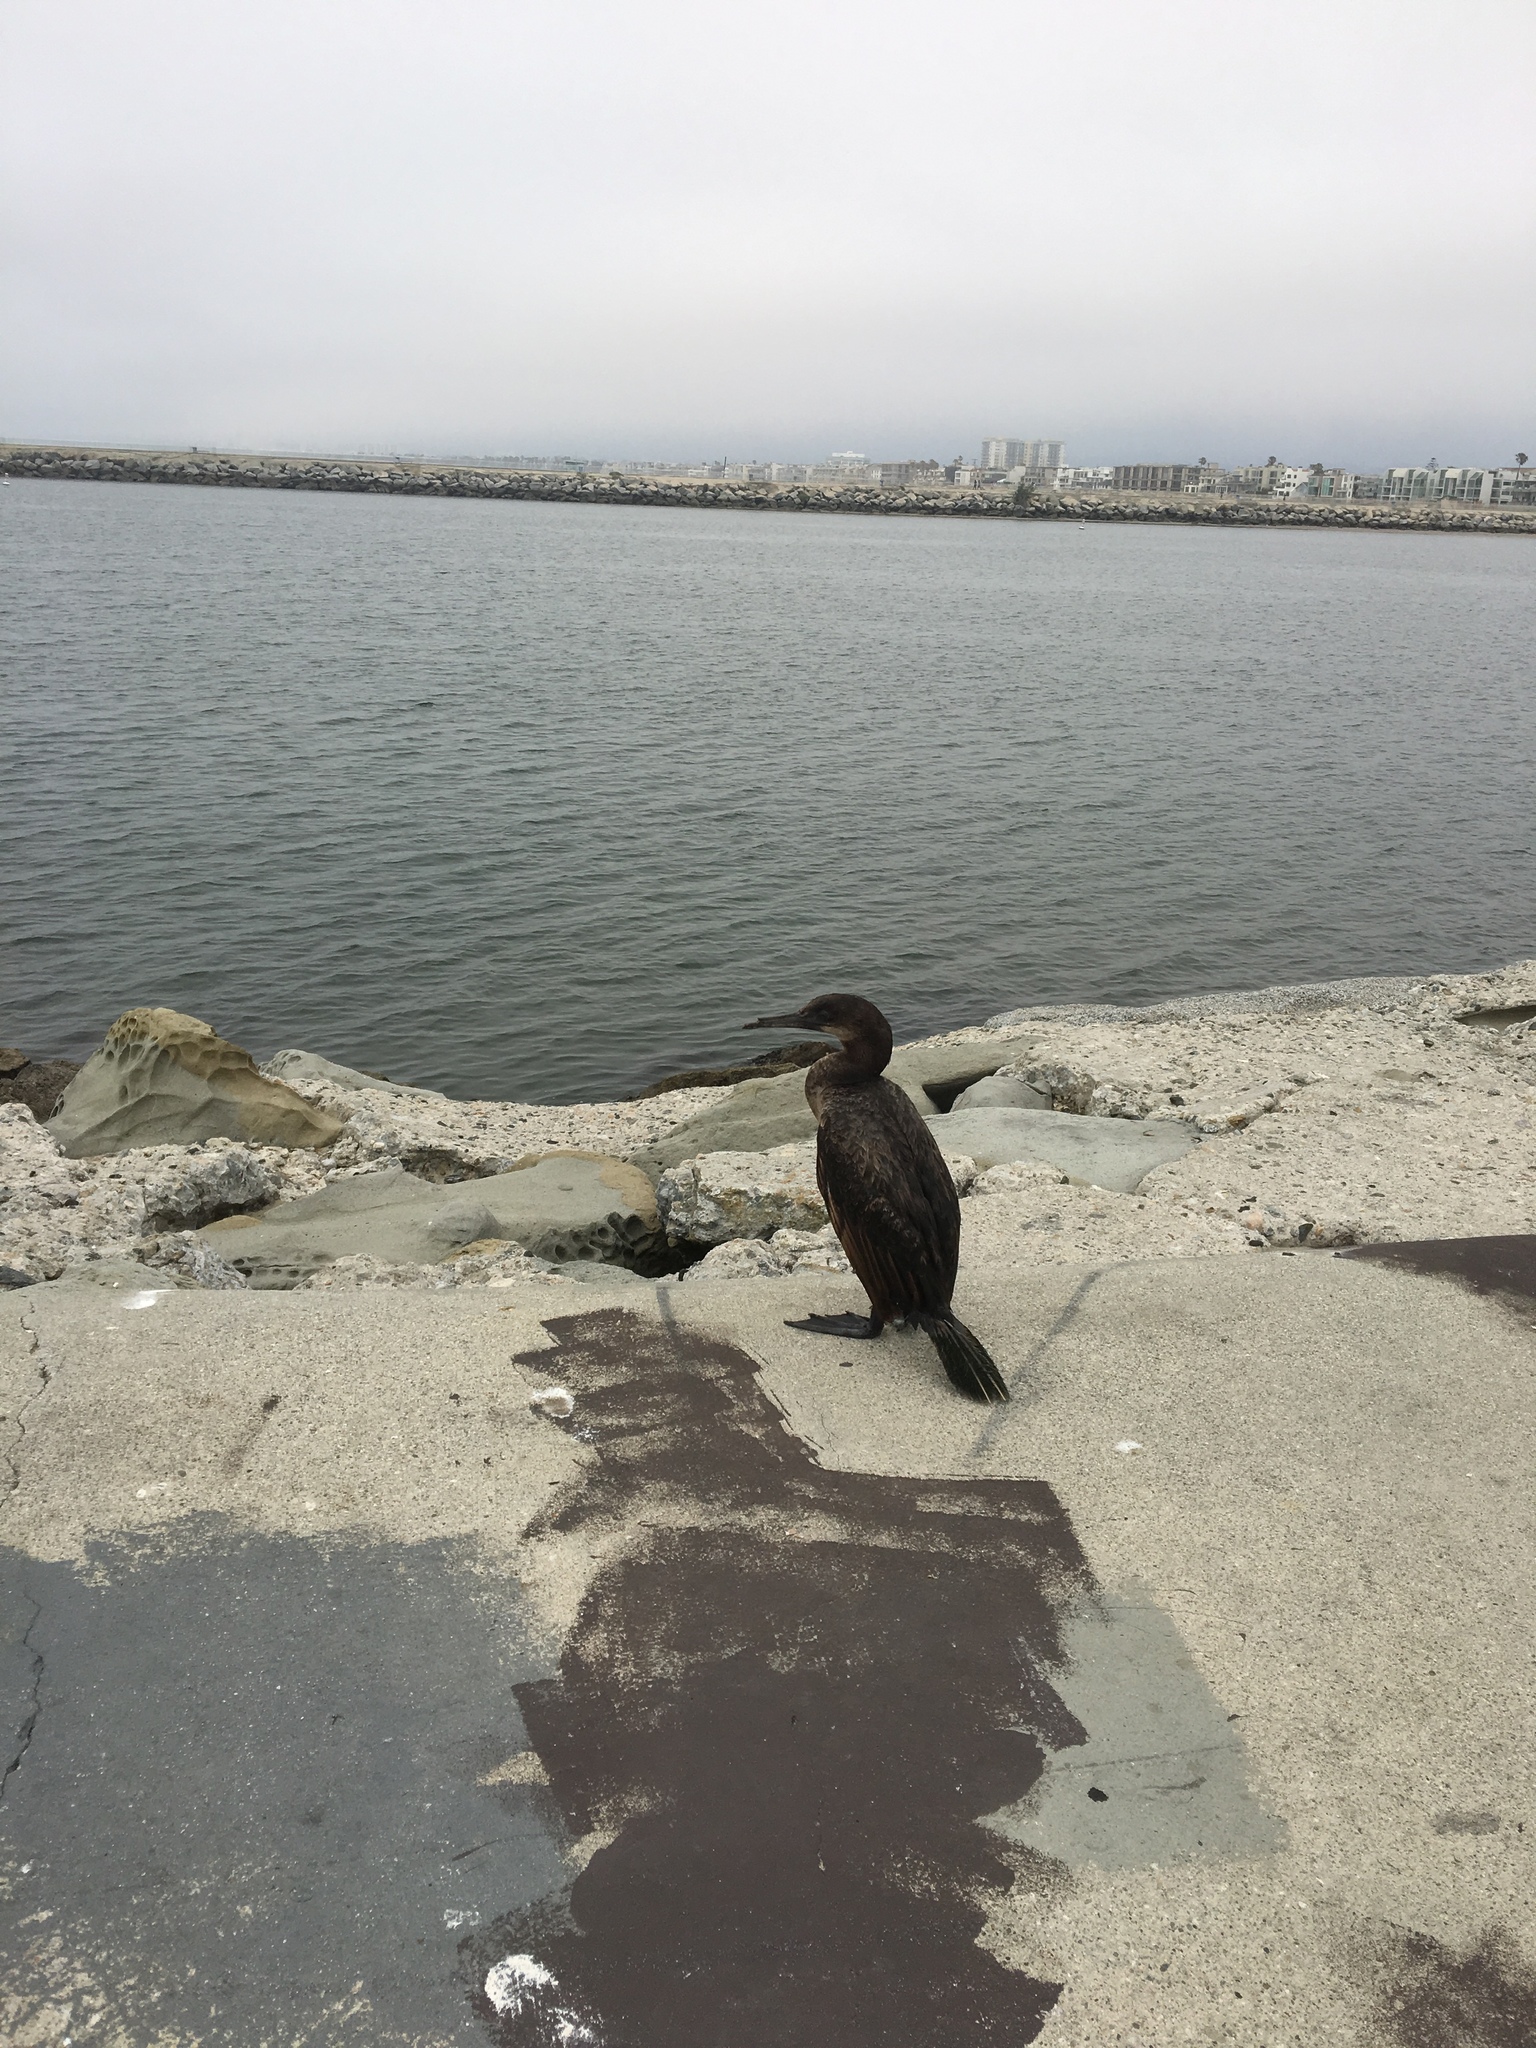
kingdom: Animalia
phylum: Chordata
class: Aves
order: Suliformes
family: Phalacrocoracidae
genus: Urile
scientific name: Urile penicillatus
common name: Brandt's cormorant
